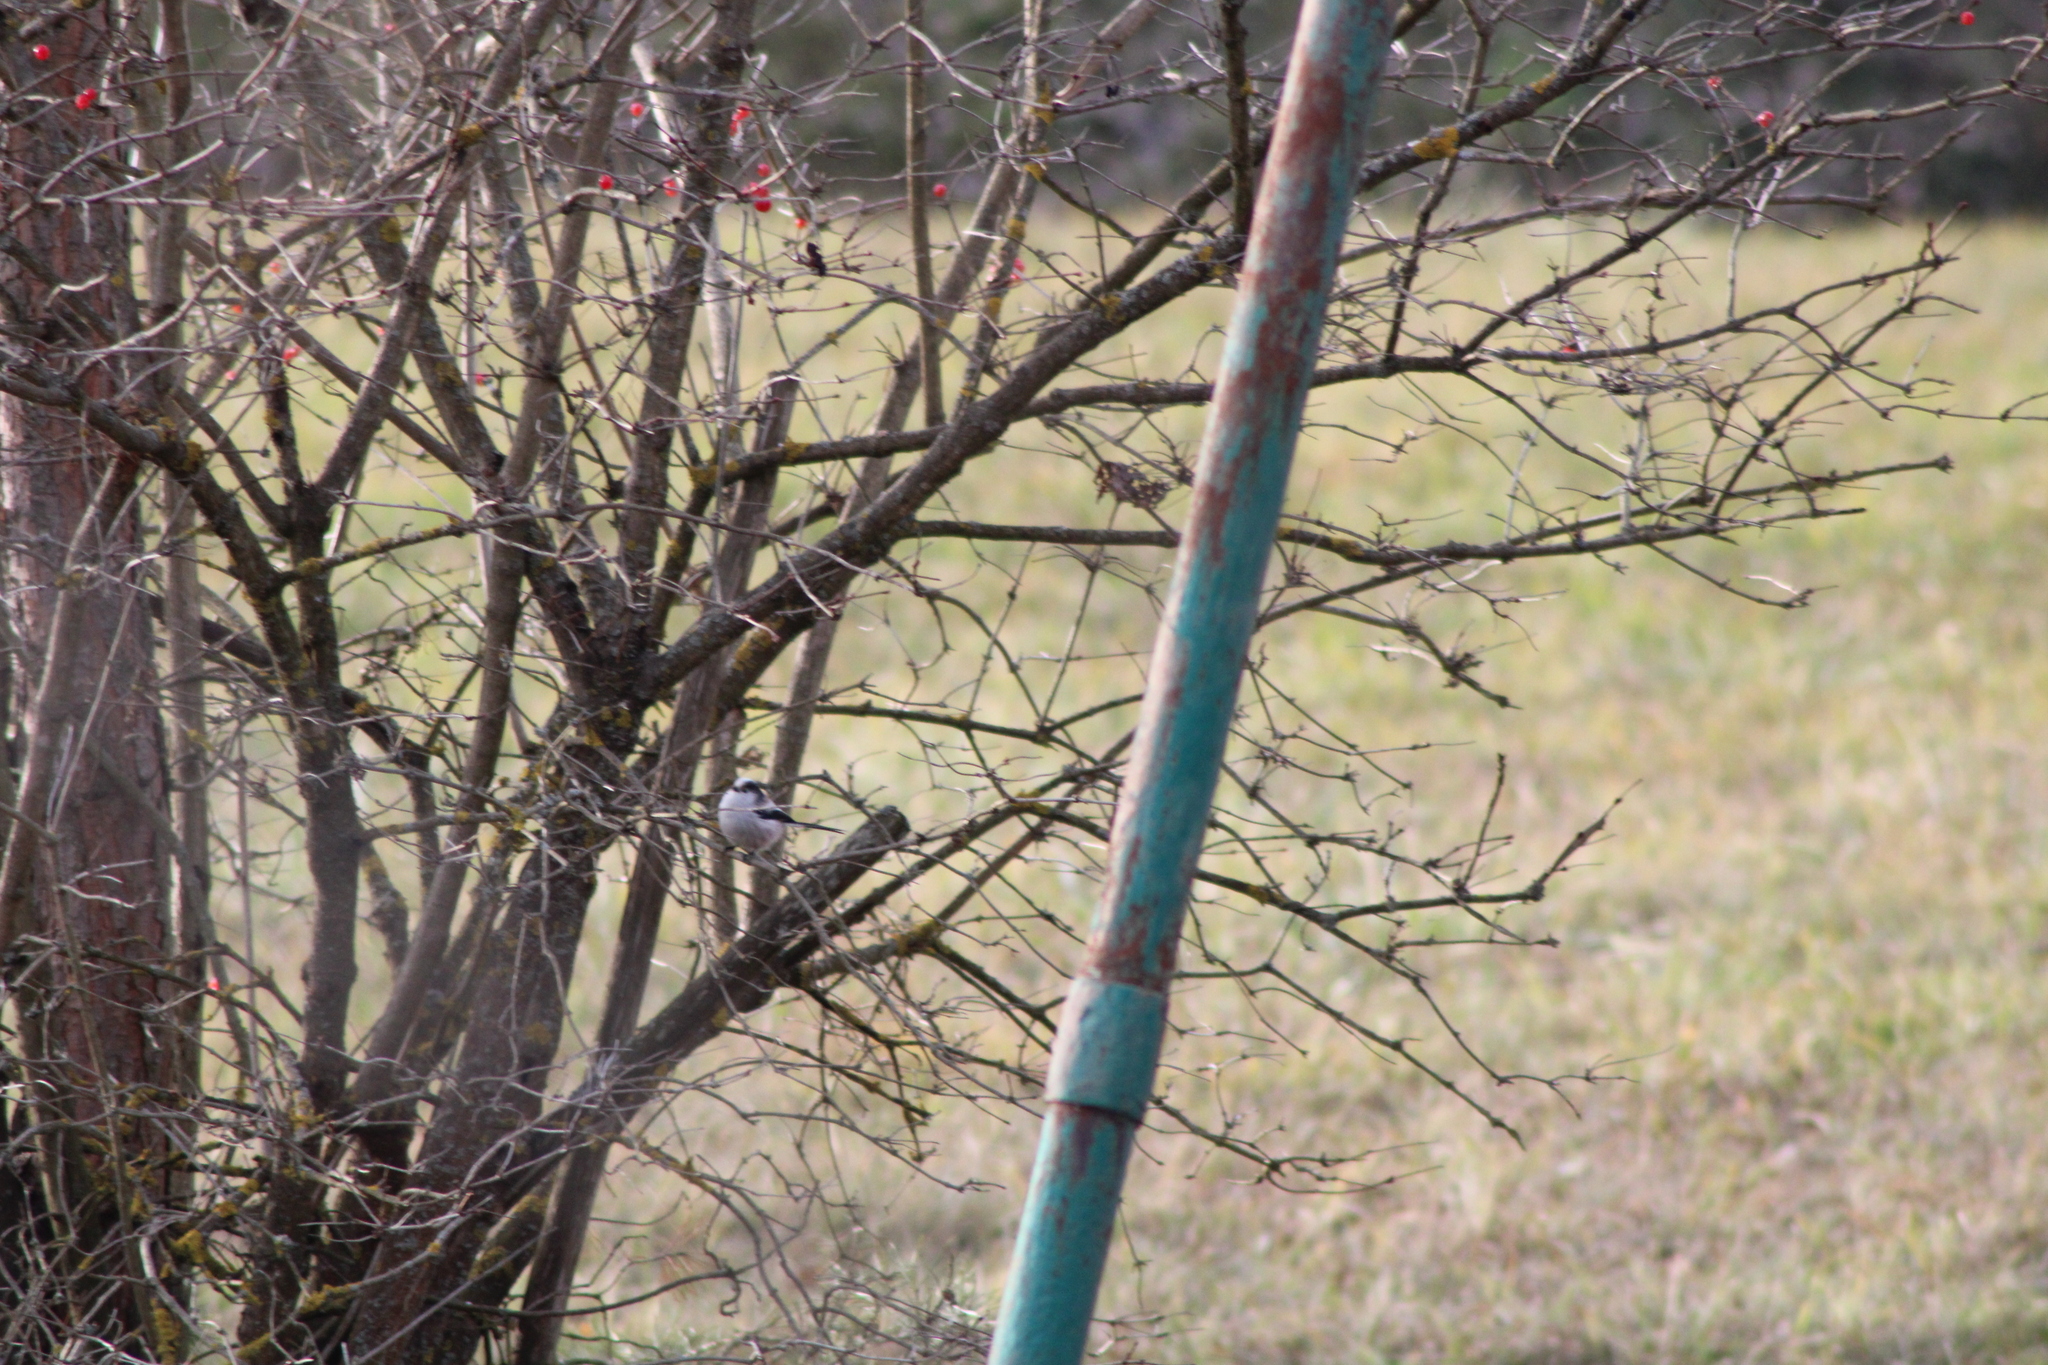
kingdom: Animalia
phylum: Chordata
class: Aves
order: Passeriformes
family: Aegithalidae
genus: Aegithalos
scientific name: Aegithalos caudatus
